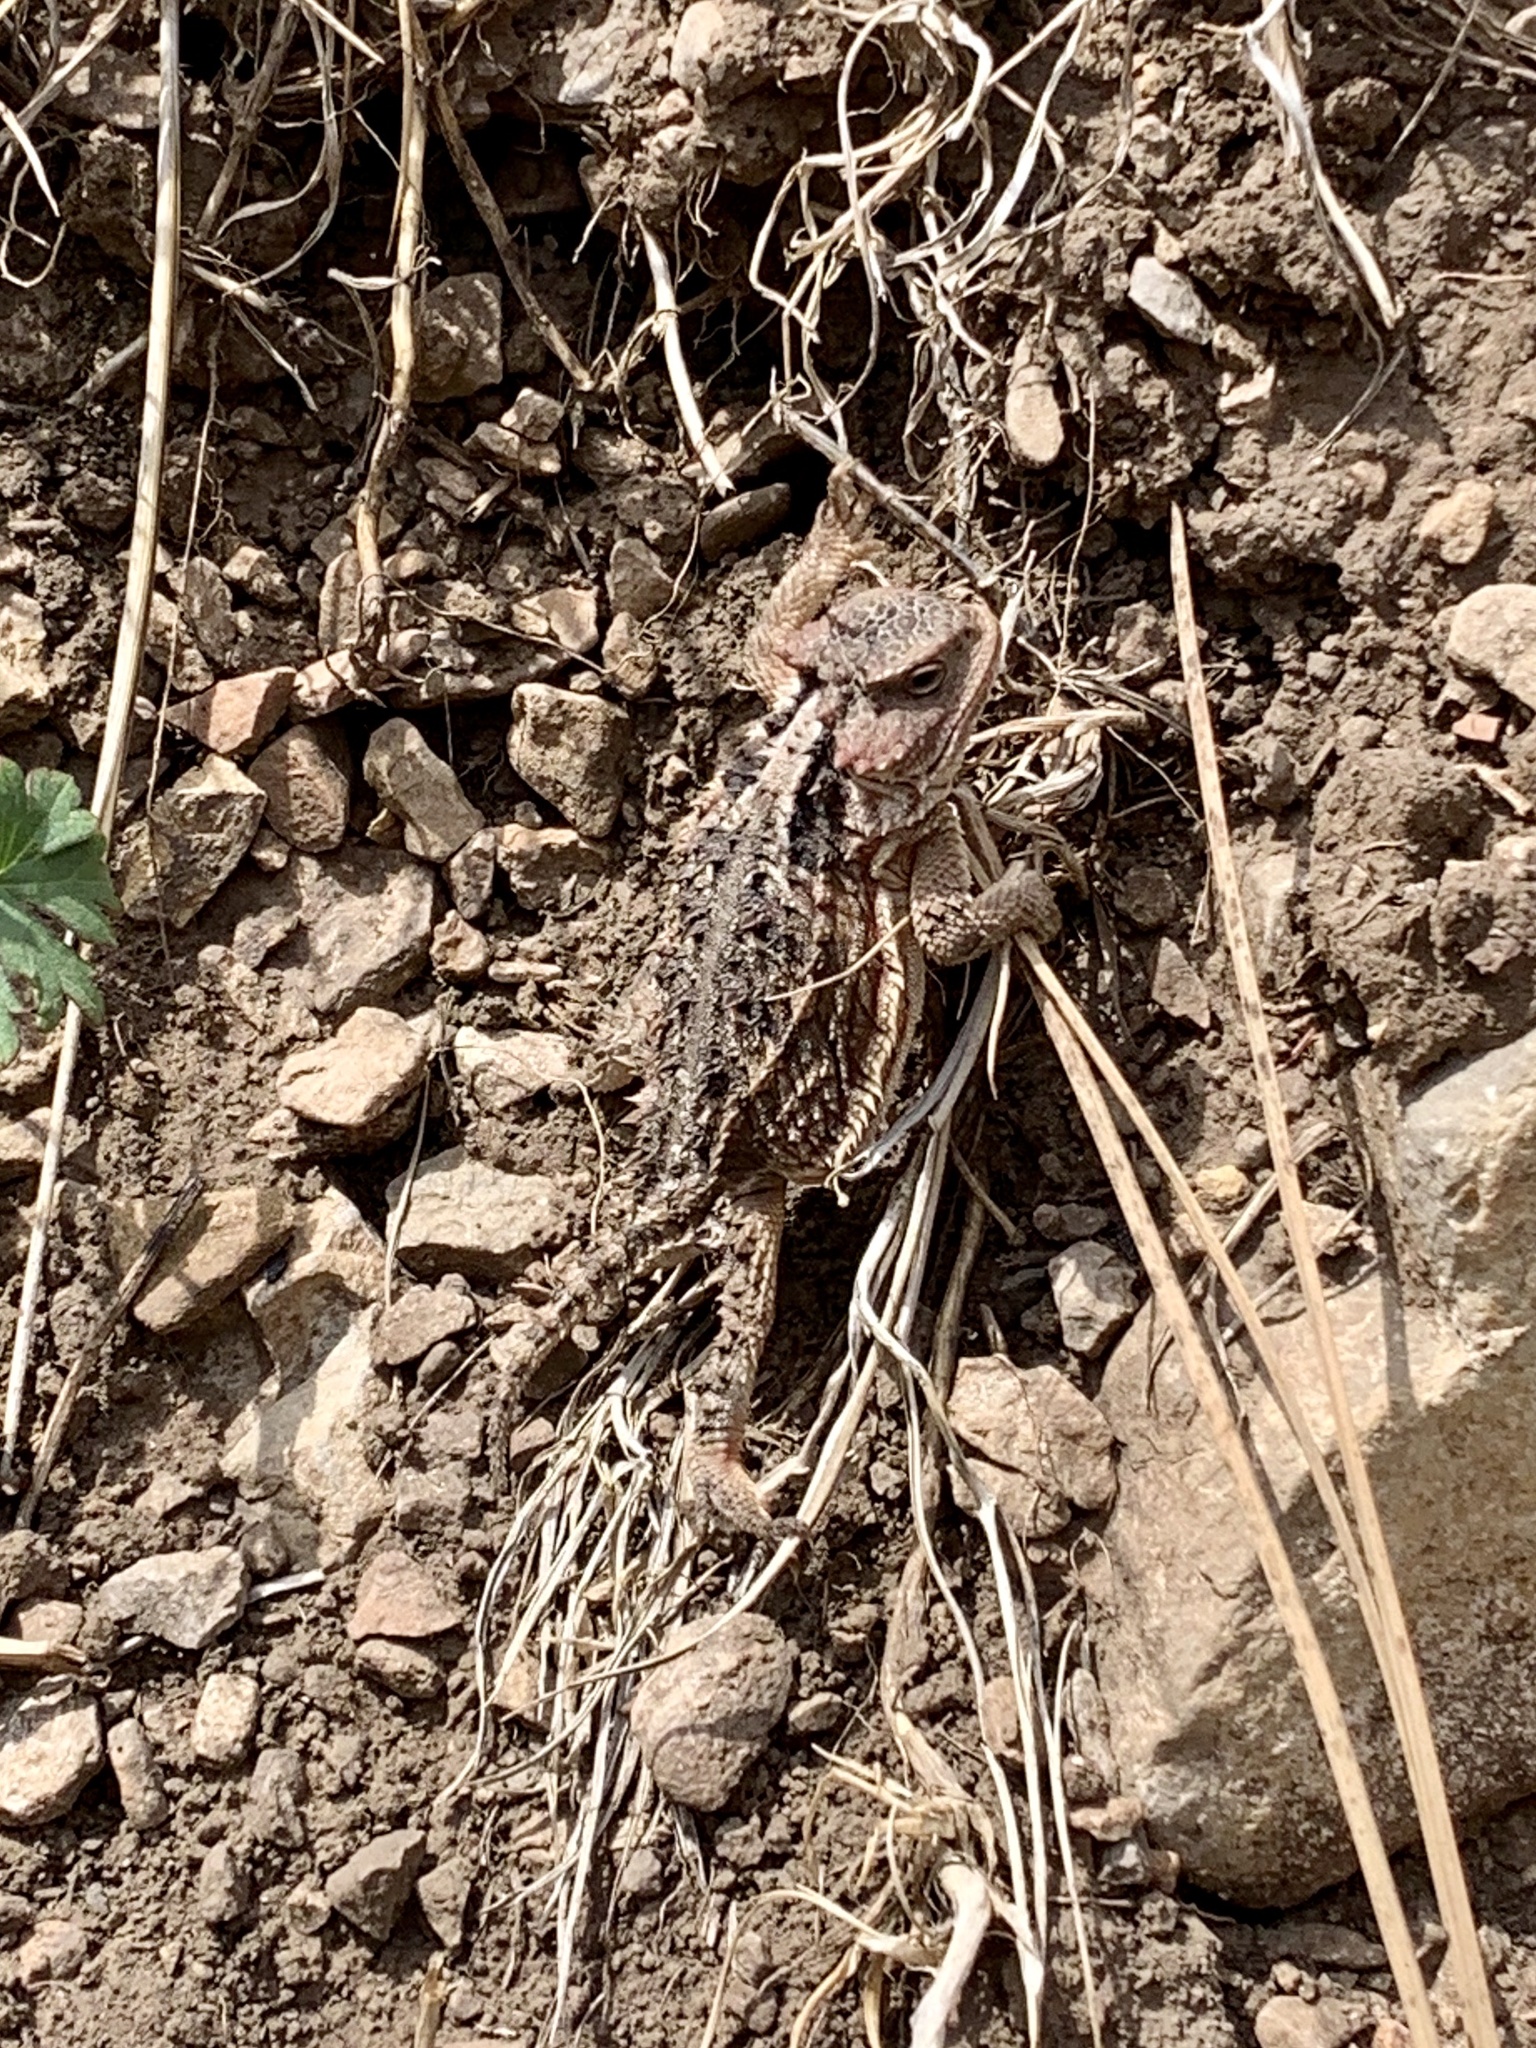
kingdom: Animalia
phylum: Chordata
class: Squamata
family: Phrynosomatidae
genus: Phrynosoma
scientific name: Phrynosoma hernandesi
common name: Greater short-horned lizard
